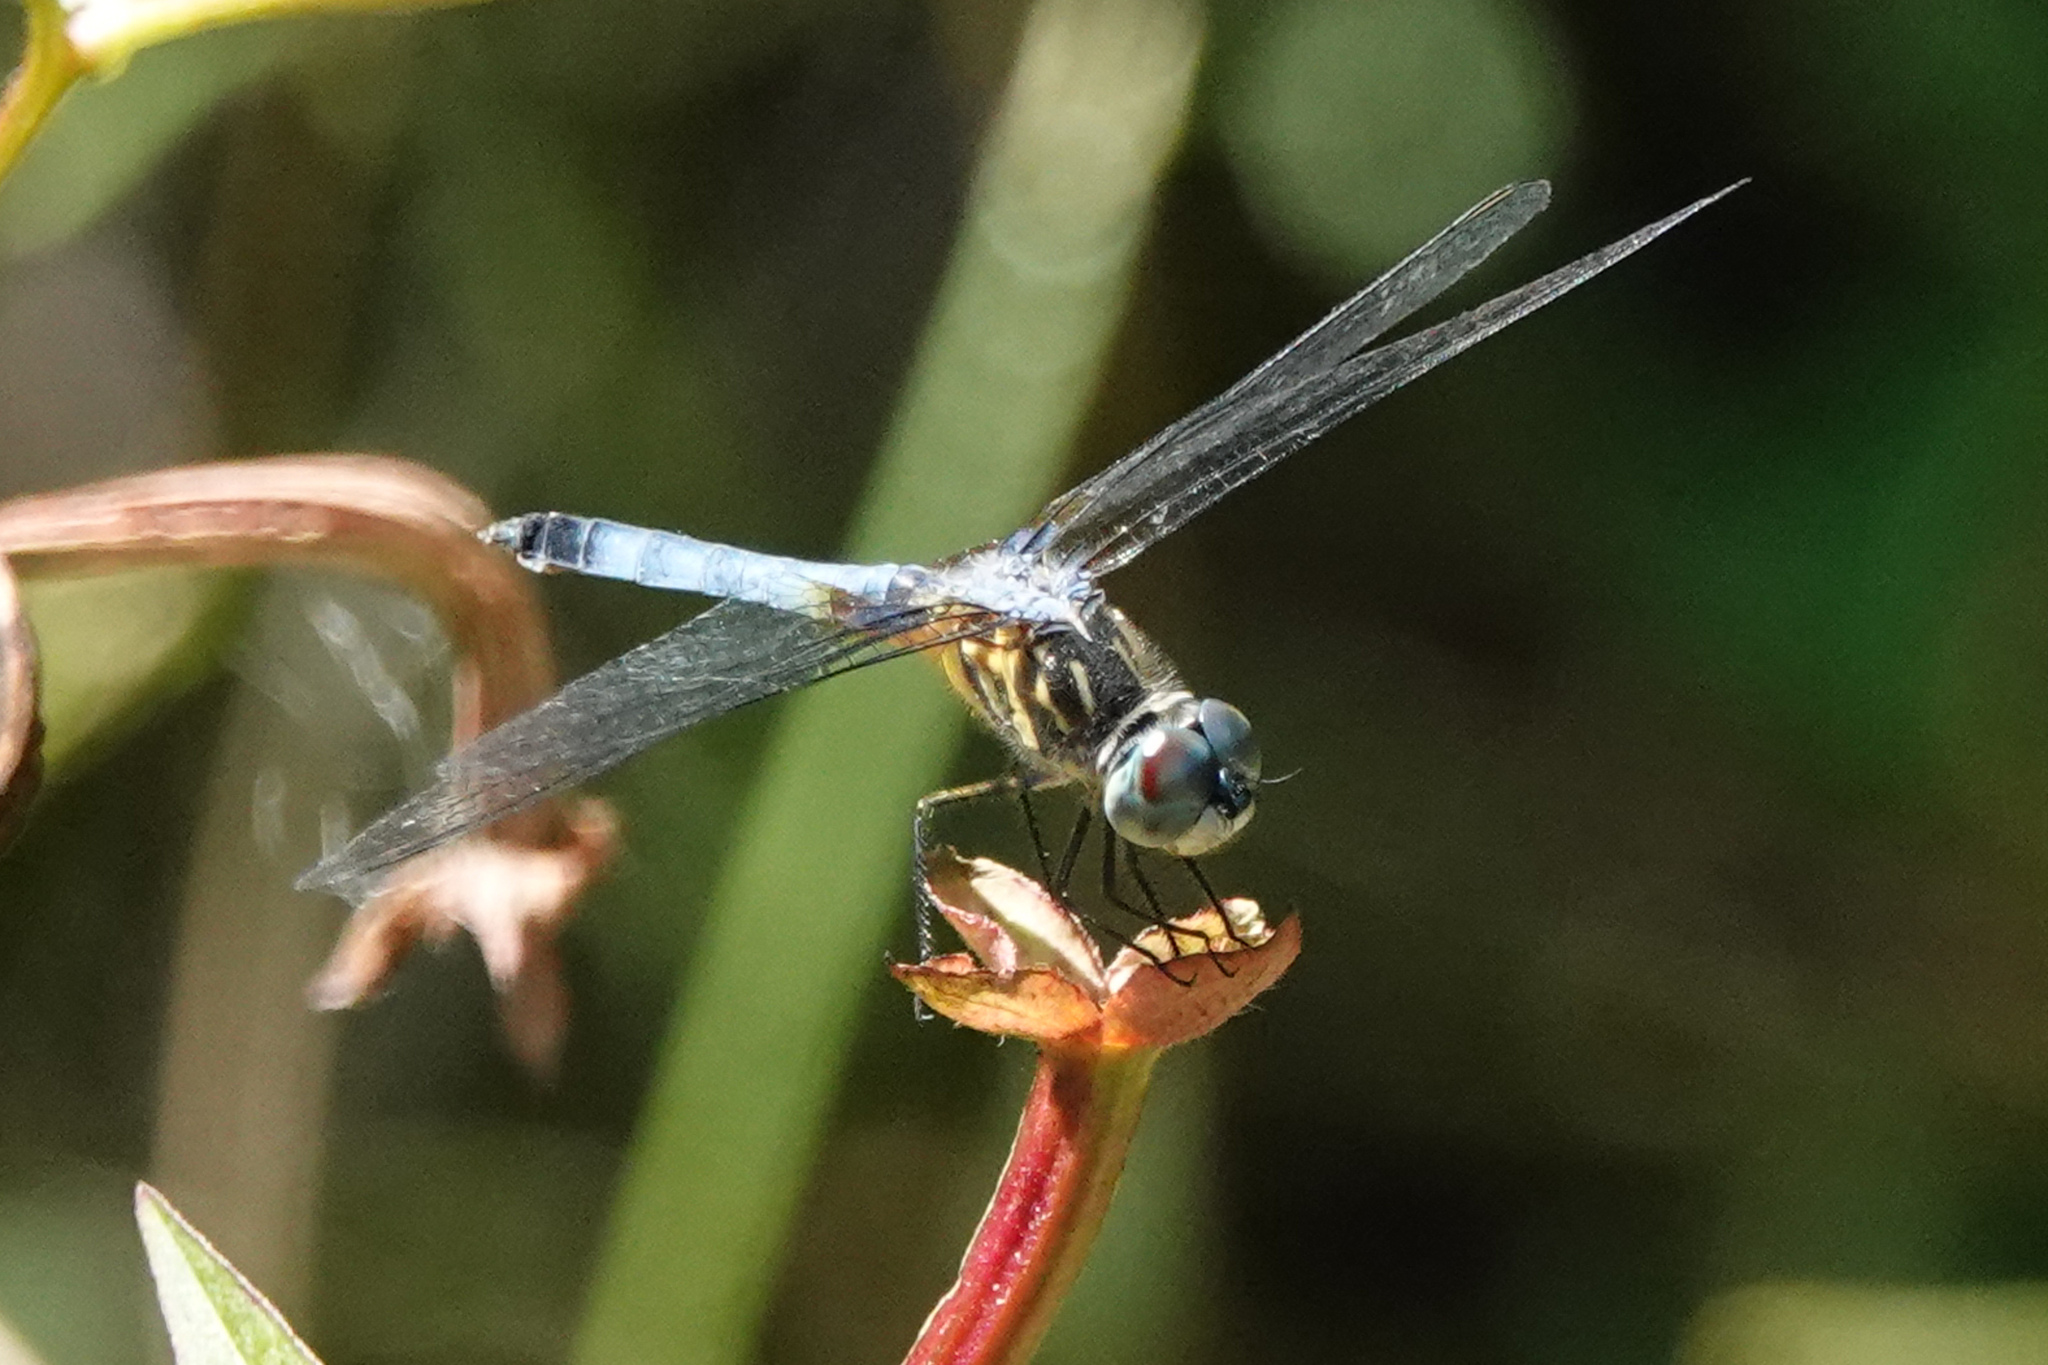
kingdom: Animalia
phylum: Arthropoda
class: Insecta
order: Odonata
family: Libellulidae
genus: Pachydiplax
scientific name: Pachydiplax longipennis
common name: Blue dasher
